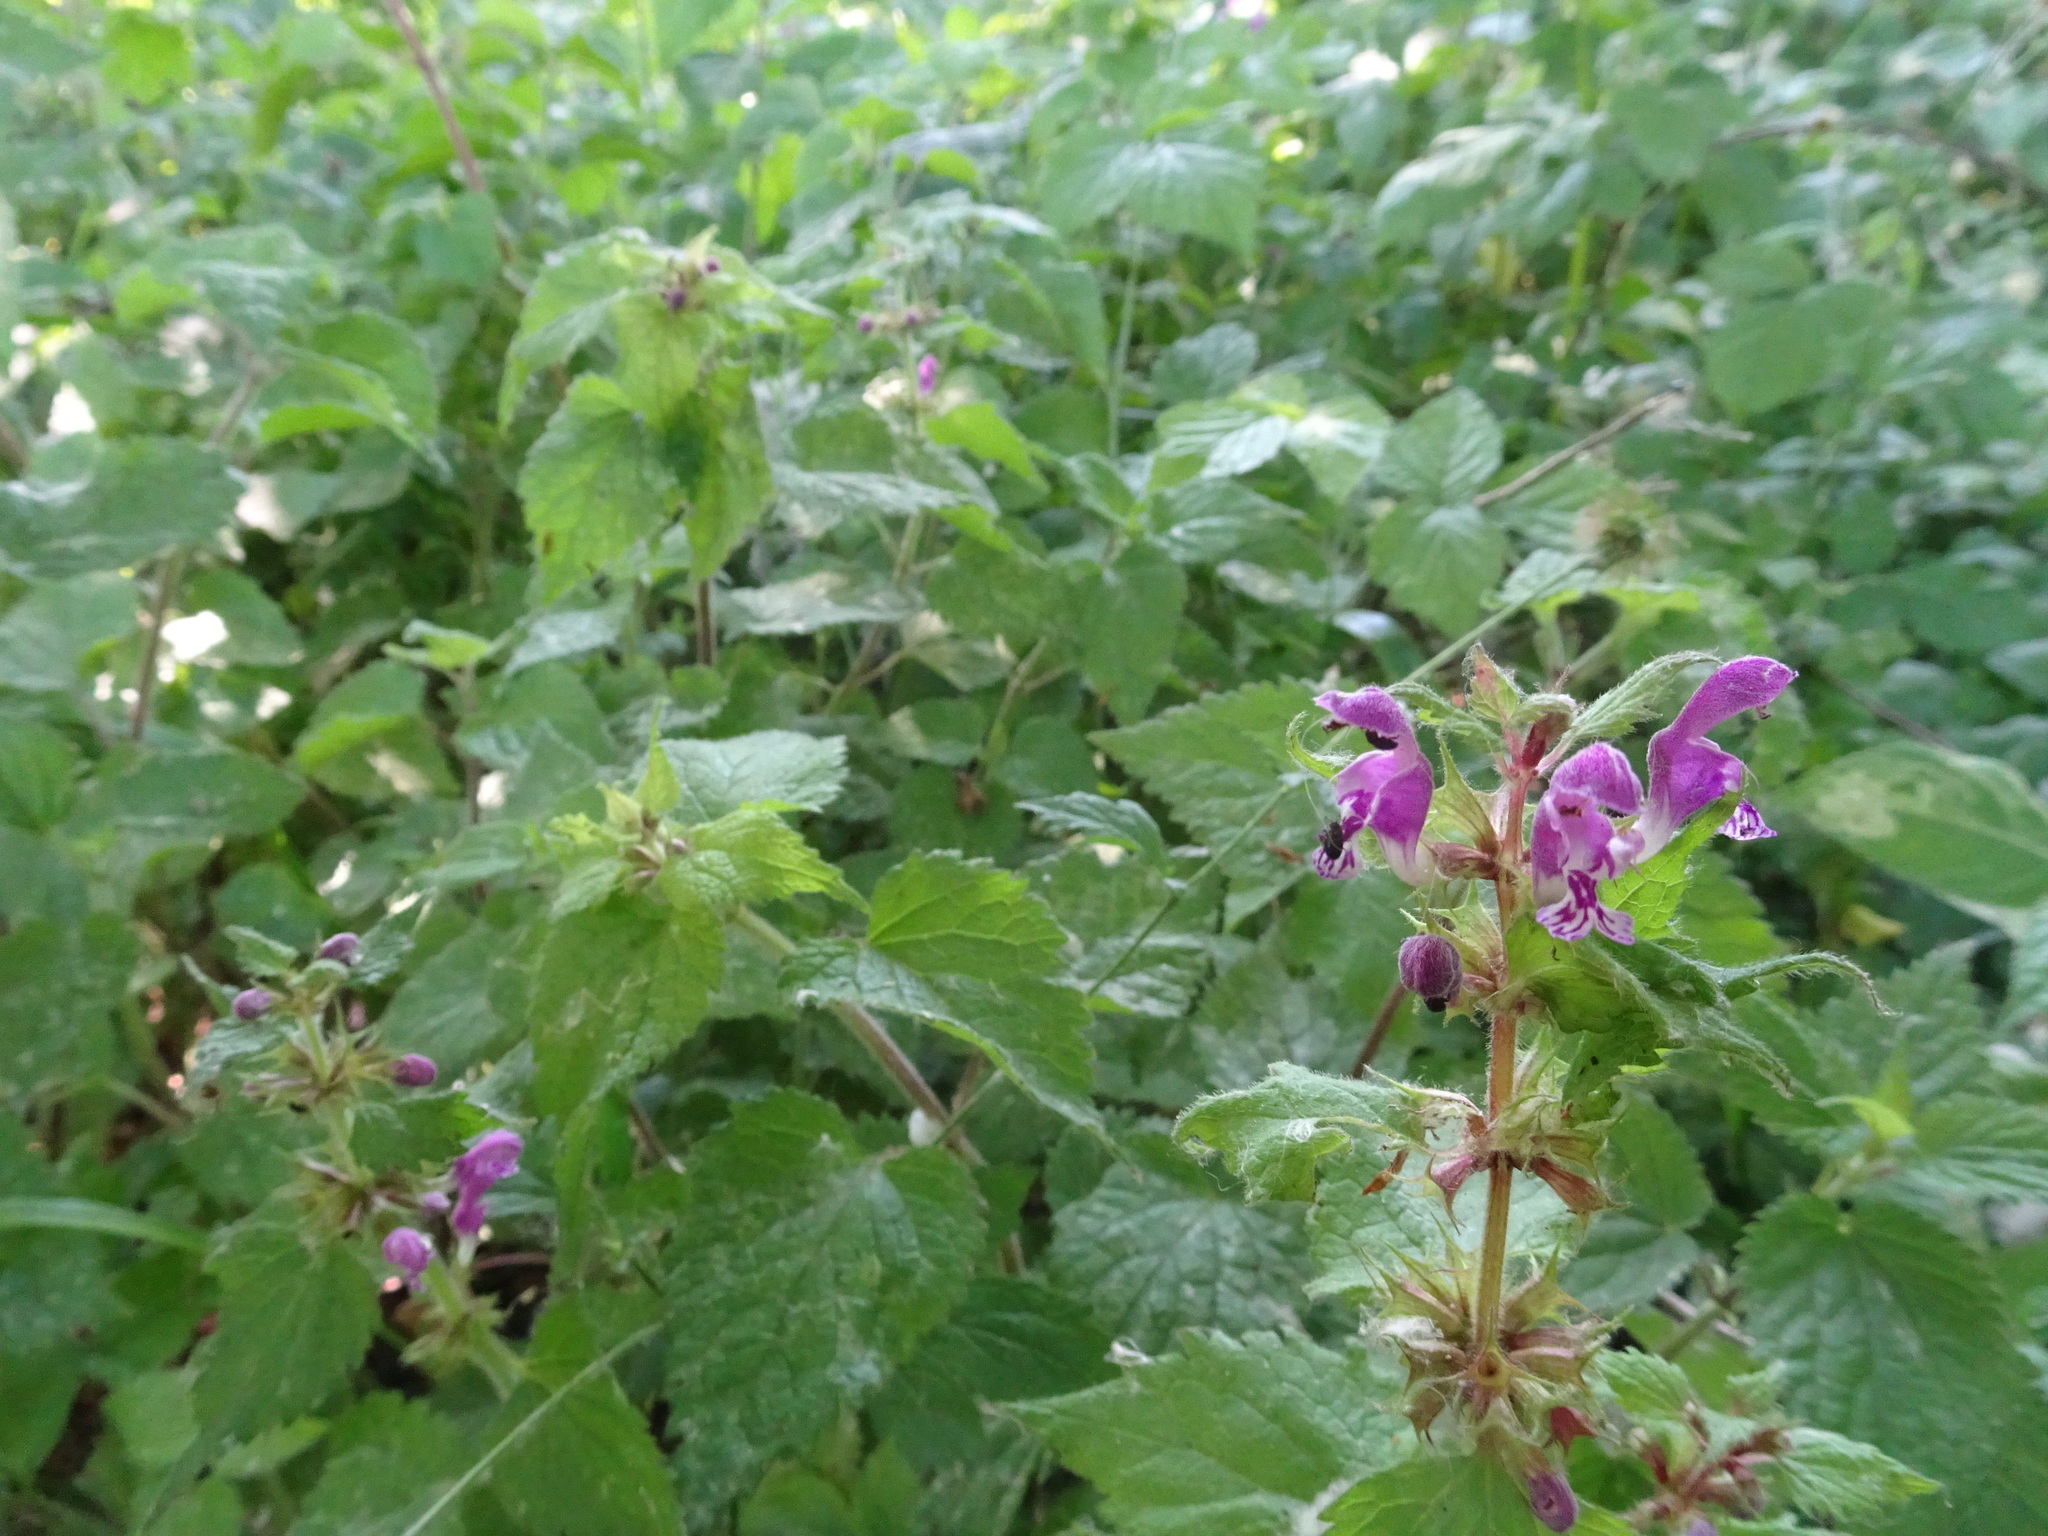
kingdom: Plantae
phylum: Tracheophyta
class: Magnoliopsida
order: Lamiales
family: Lamiaceae
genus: Lamium
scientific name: Lamium maculatum
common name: Spotted dead-nettle
